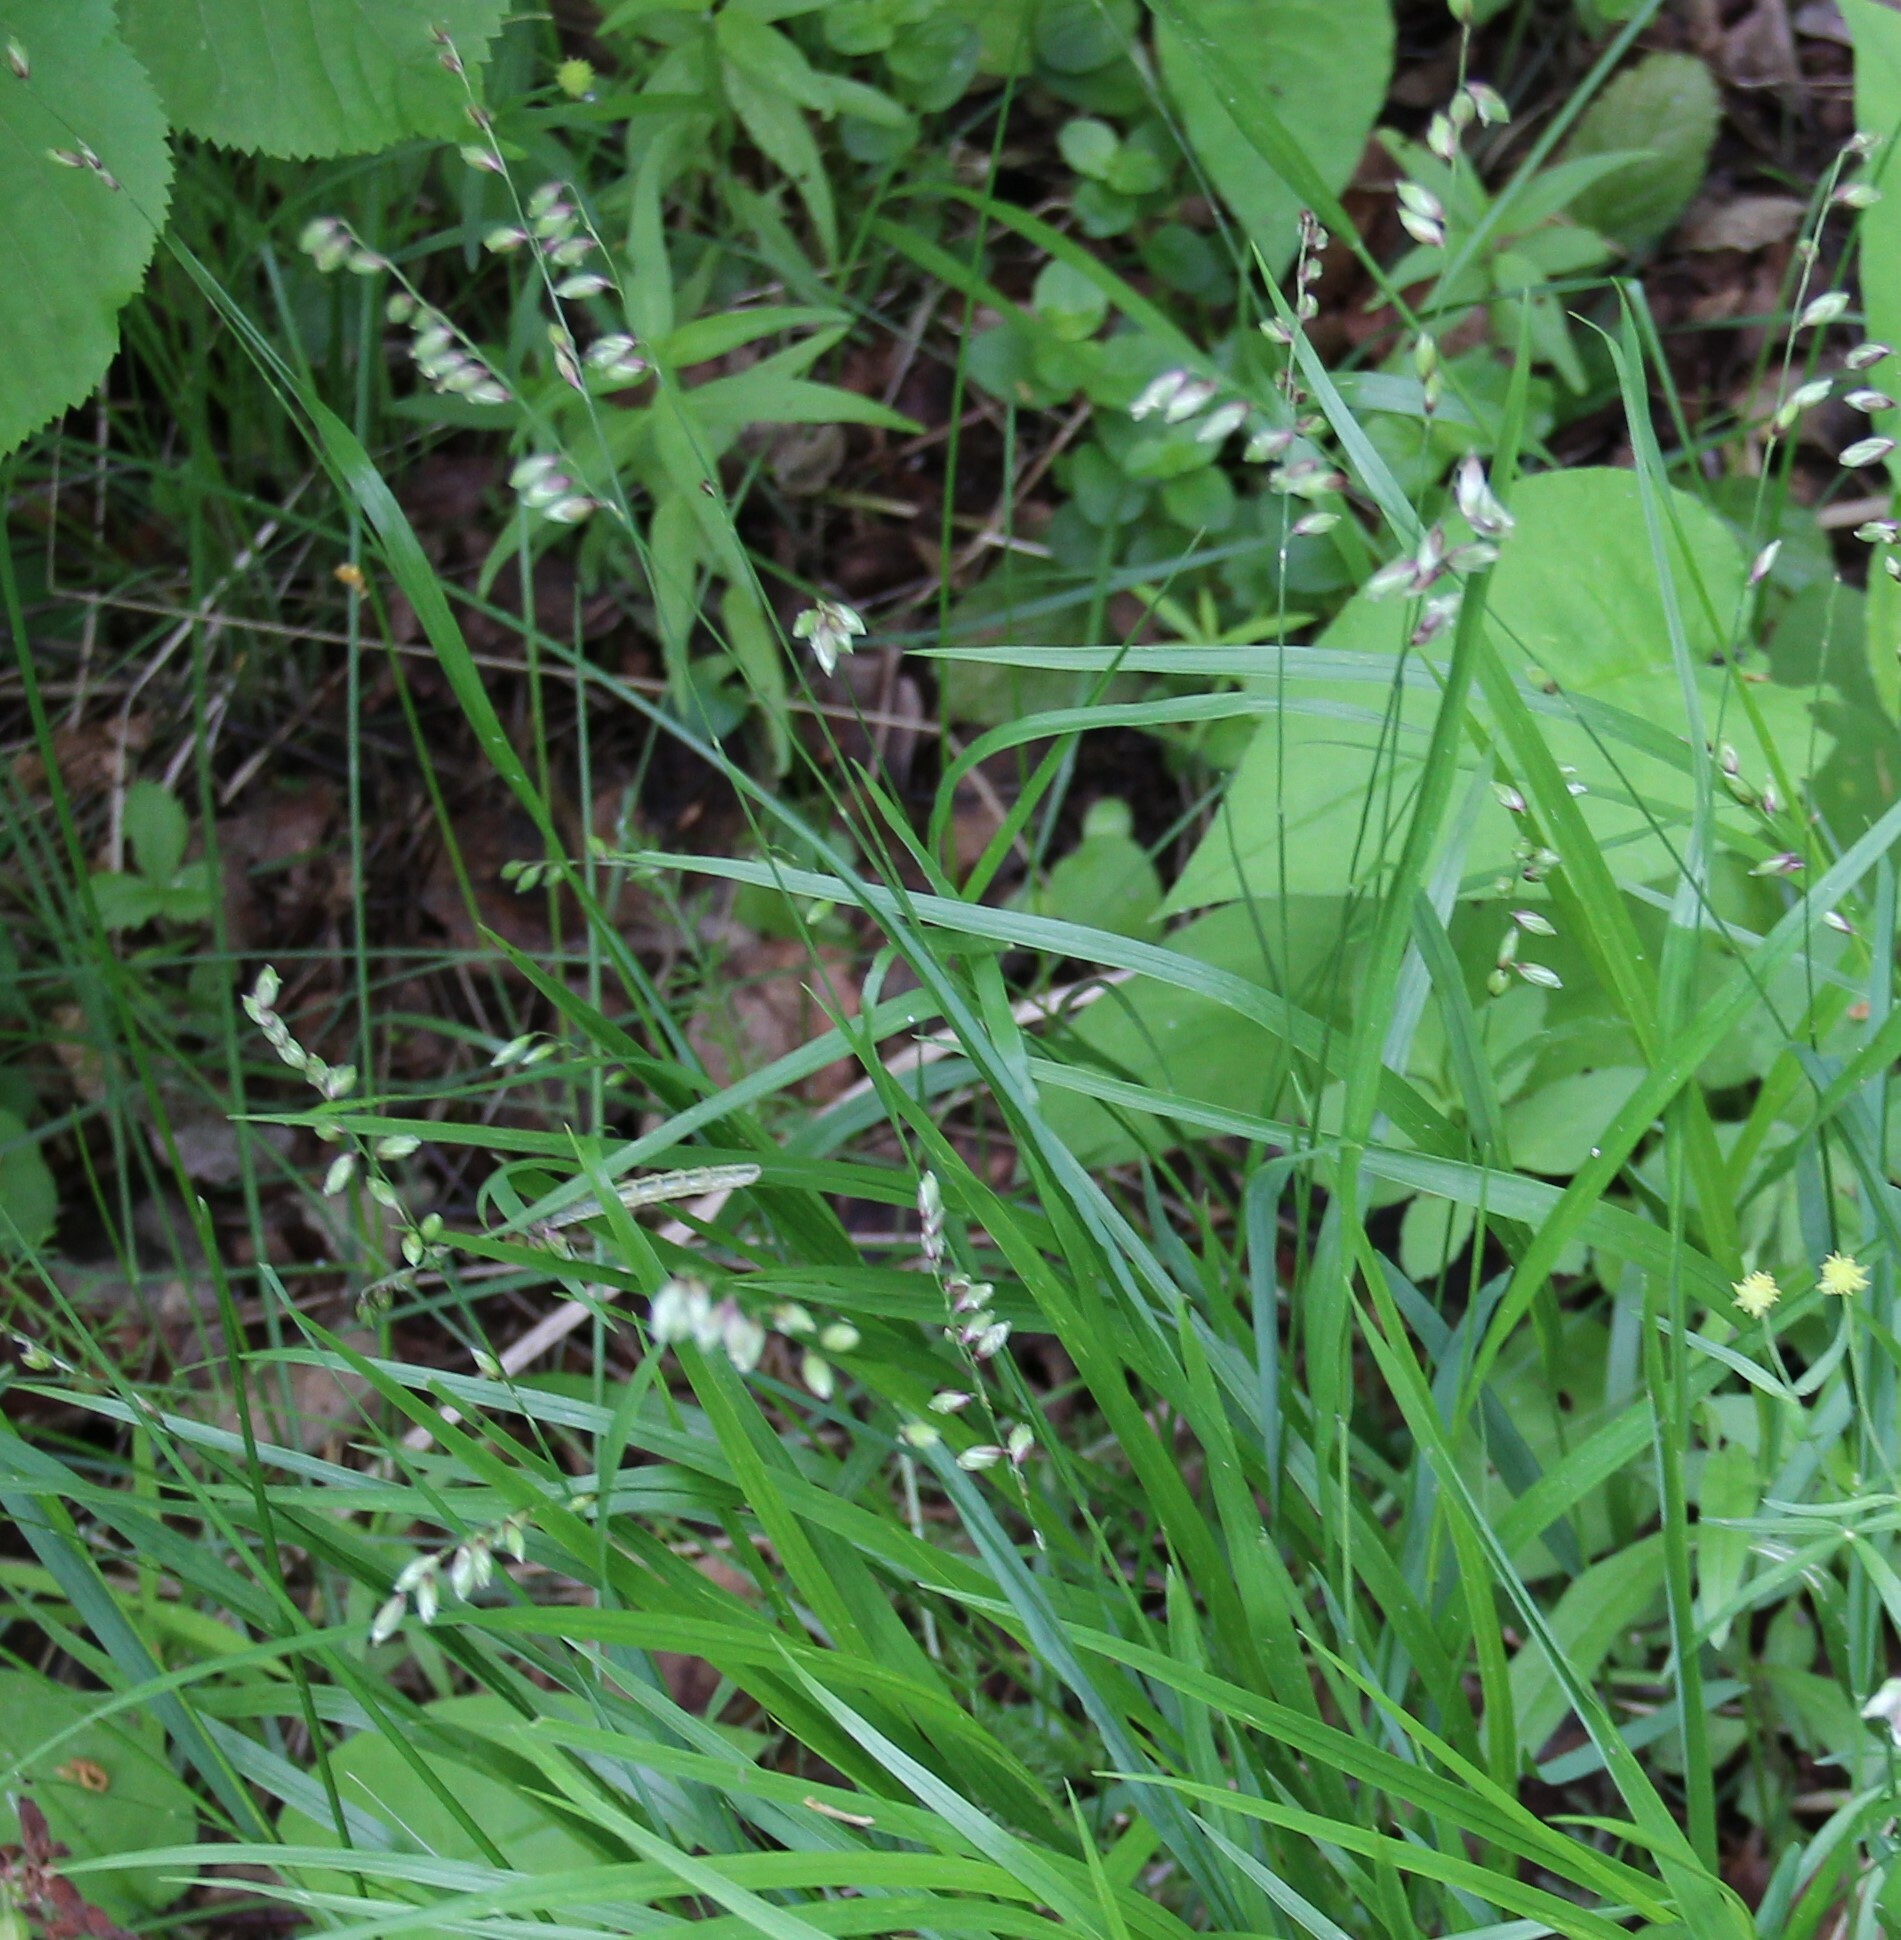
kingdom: Plantae
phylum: Tracheophyta
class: Liliopsida
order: Poales
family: Poaceae
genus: Melica
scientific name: Melica nutans
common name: Mountain melick
